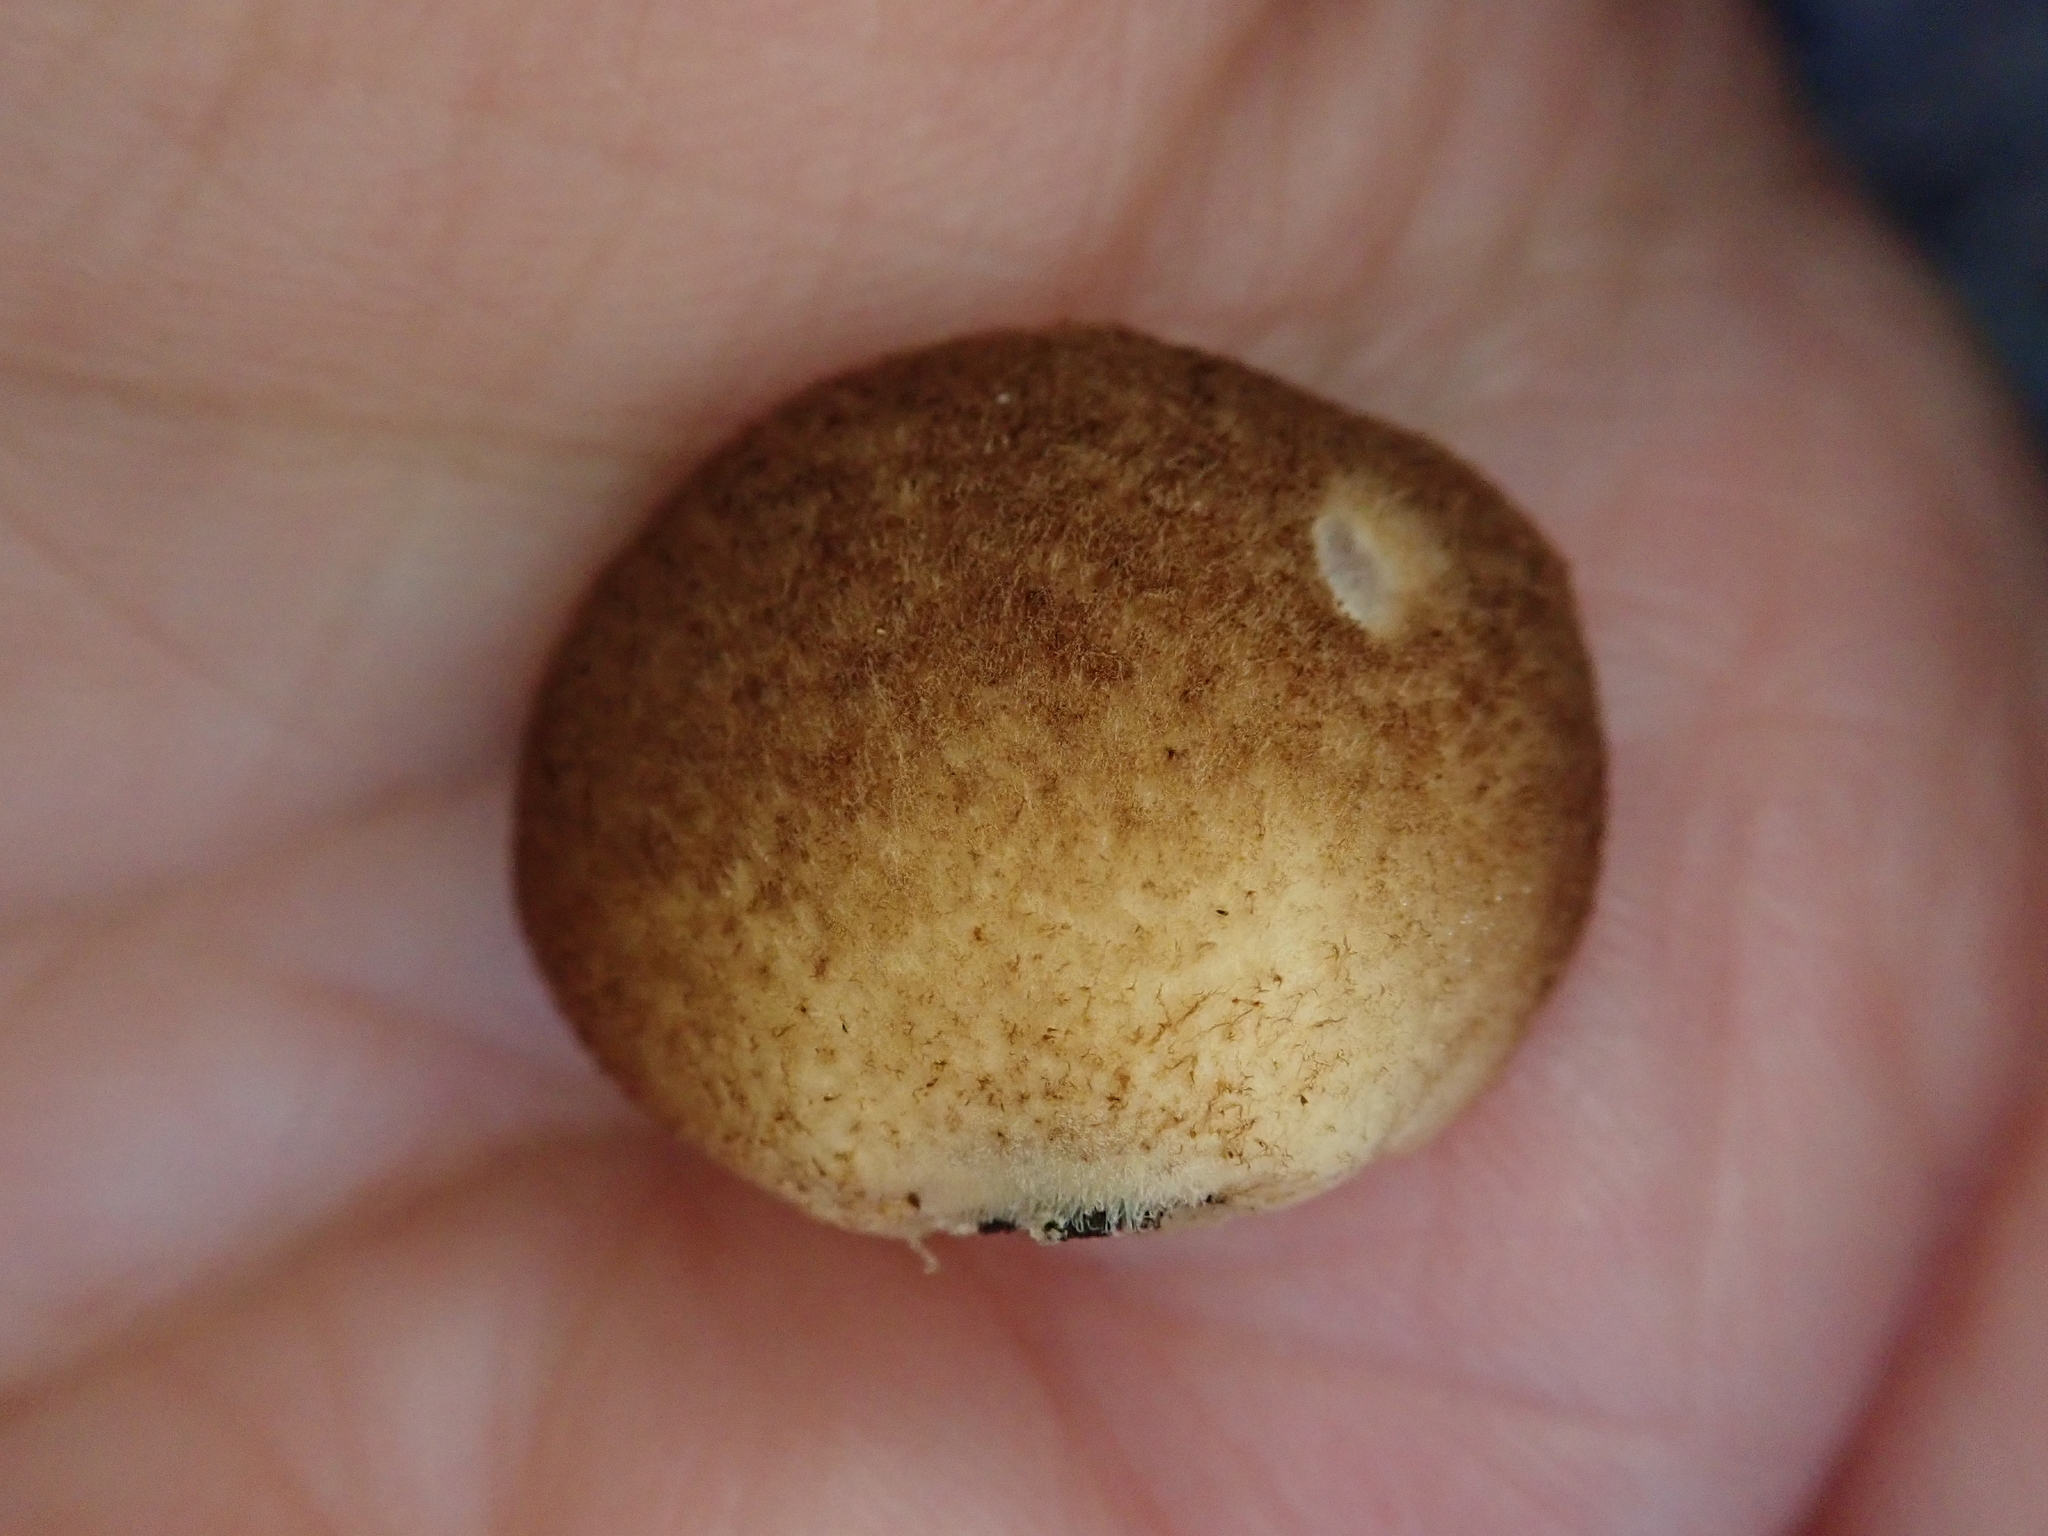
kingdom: Fungi
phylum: Basidiomycota
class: Agaricomycetes
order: Agaricales
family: Crepidotaceae
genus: Crepidotus
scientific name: Crepidotus crocophyllus
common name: Saffron oysterling
